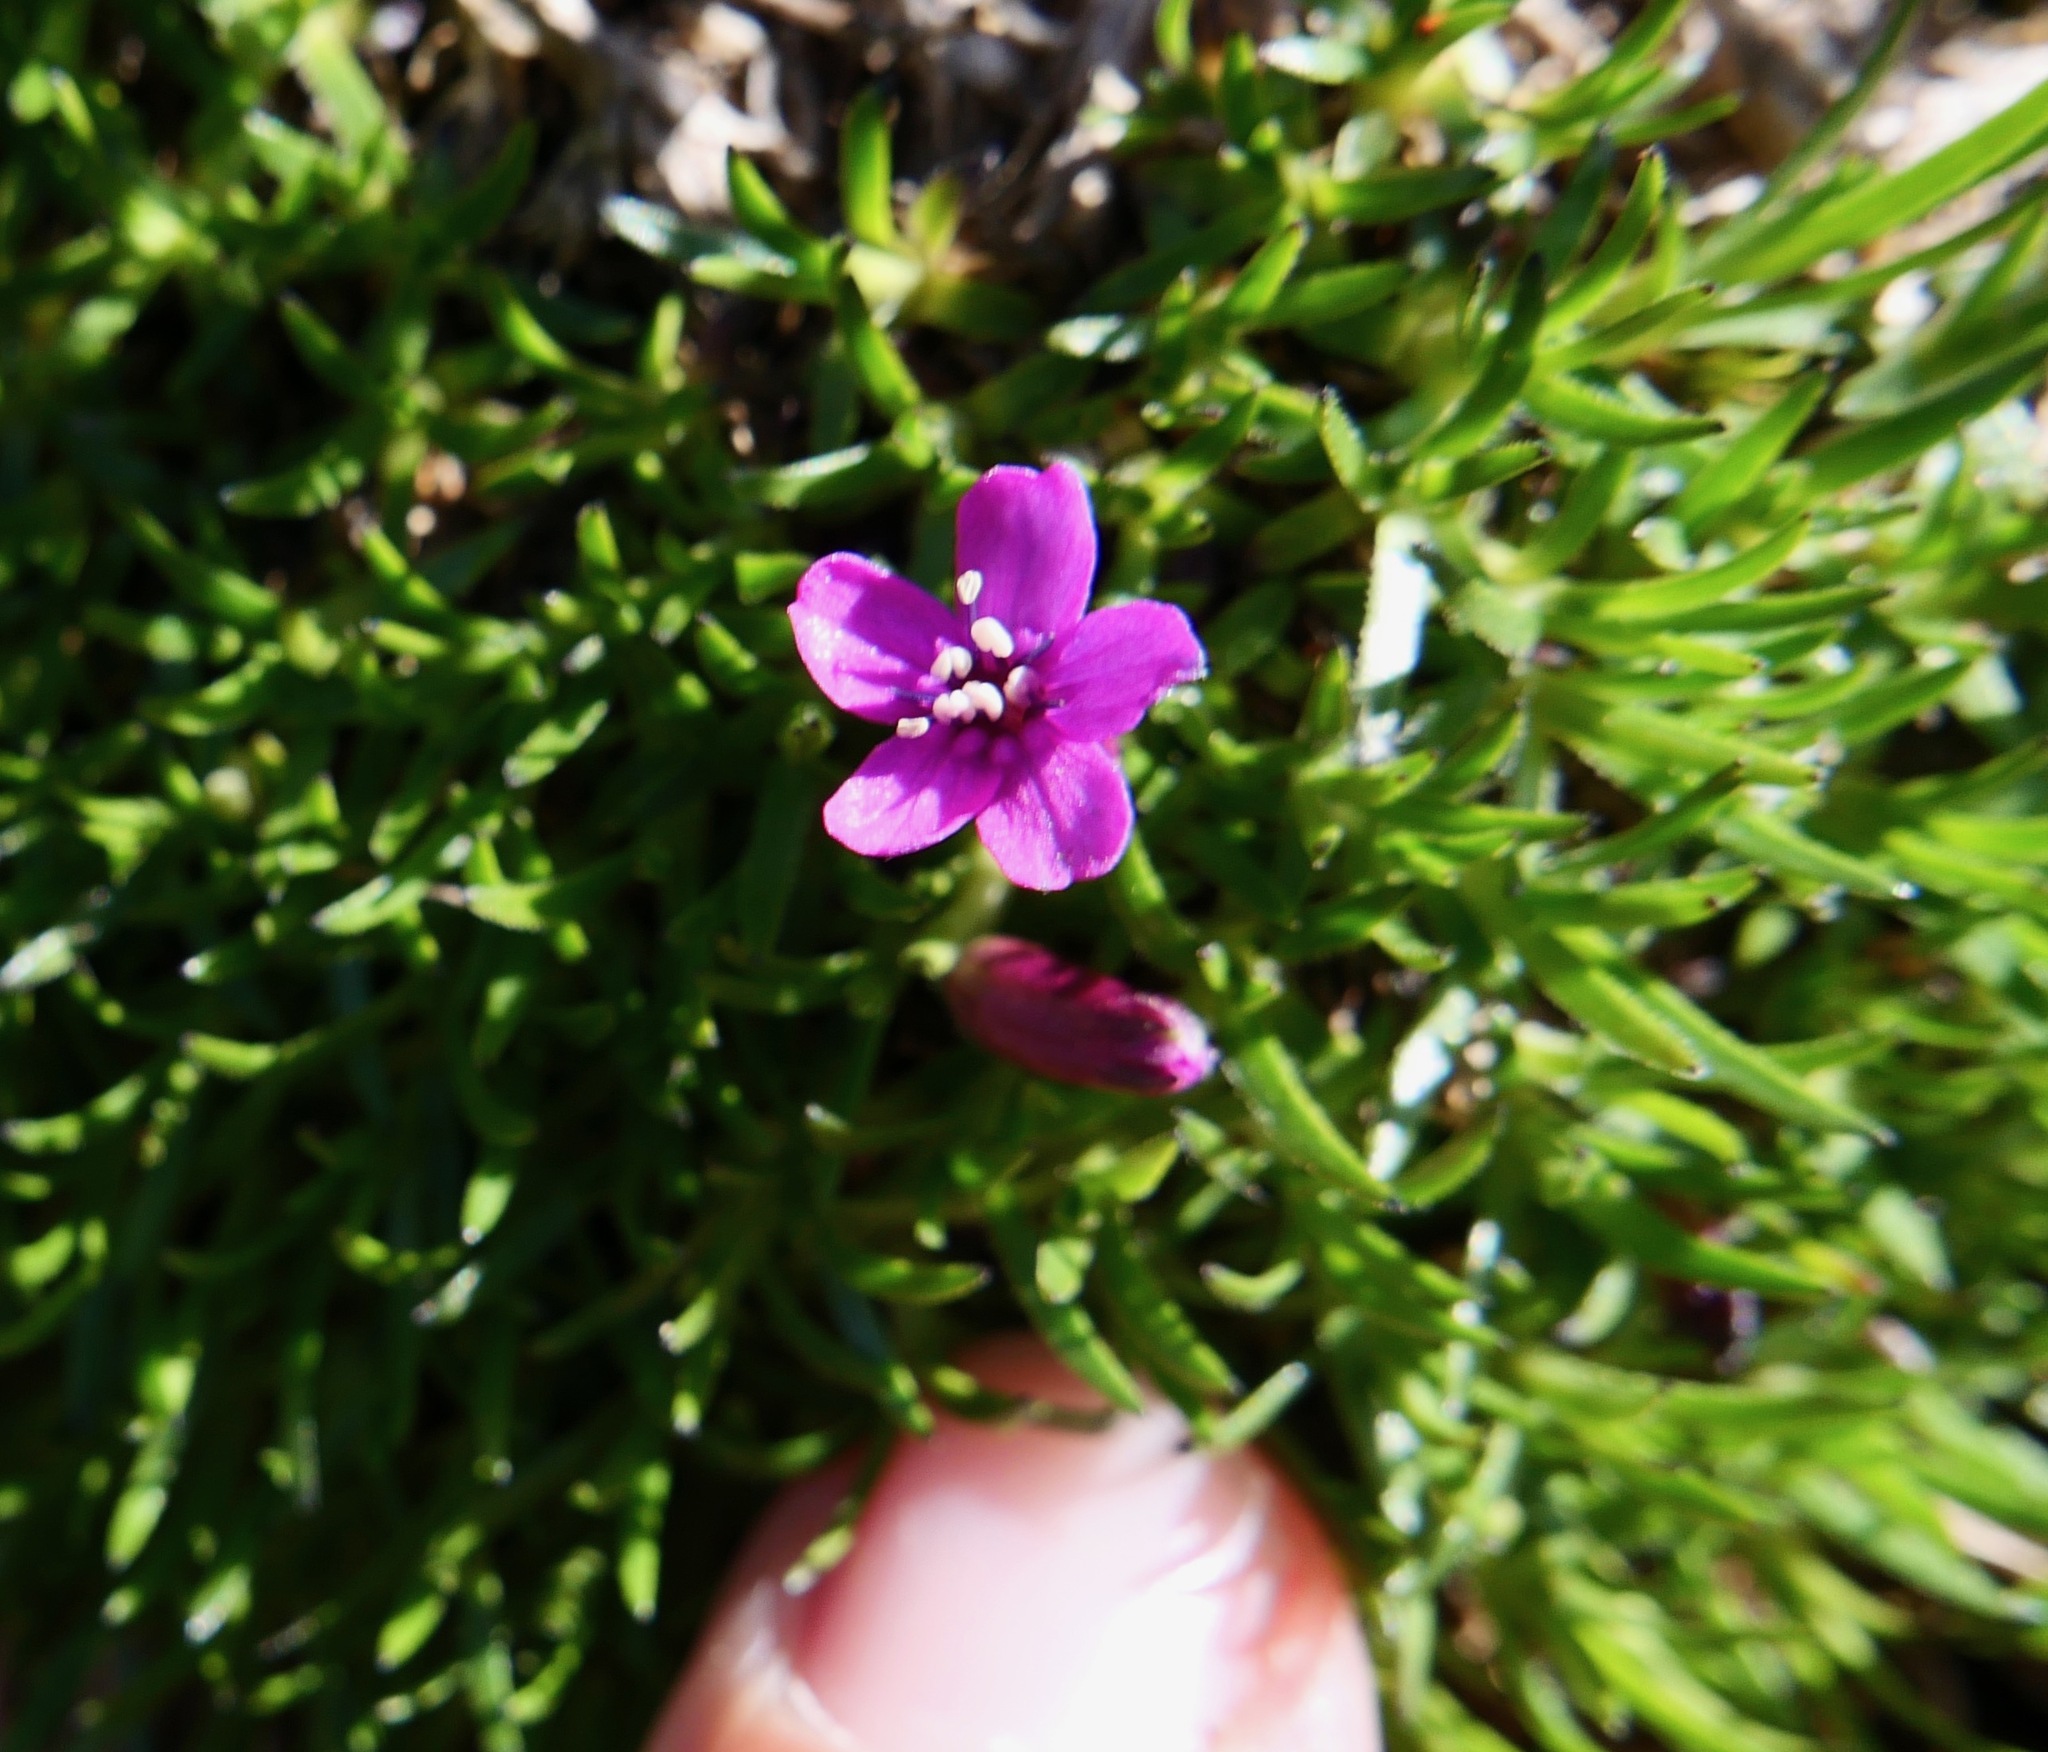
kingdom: Plantae
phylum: Tracheophyta
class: Magnoliopsida
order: Caryophyllales
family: Caryophyllaceae
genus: Silene
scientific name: Silene acaulis
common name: Moss campion
